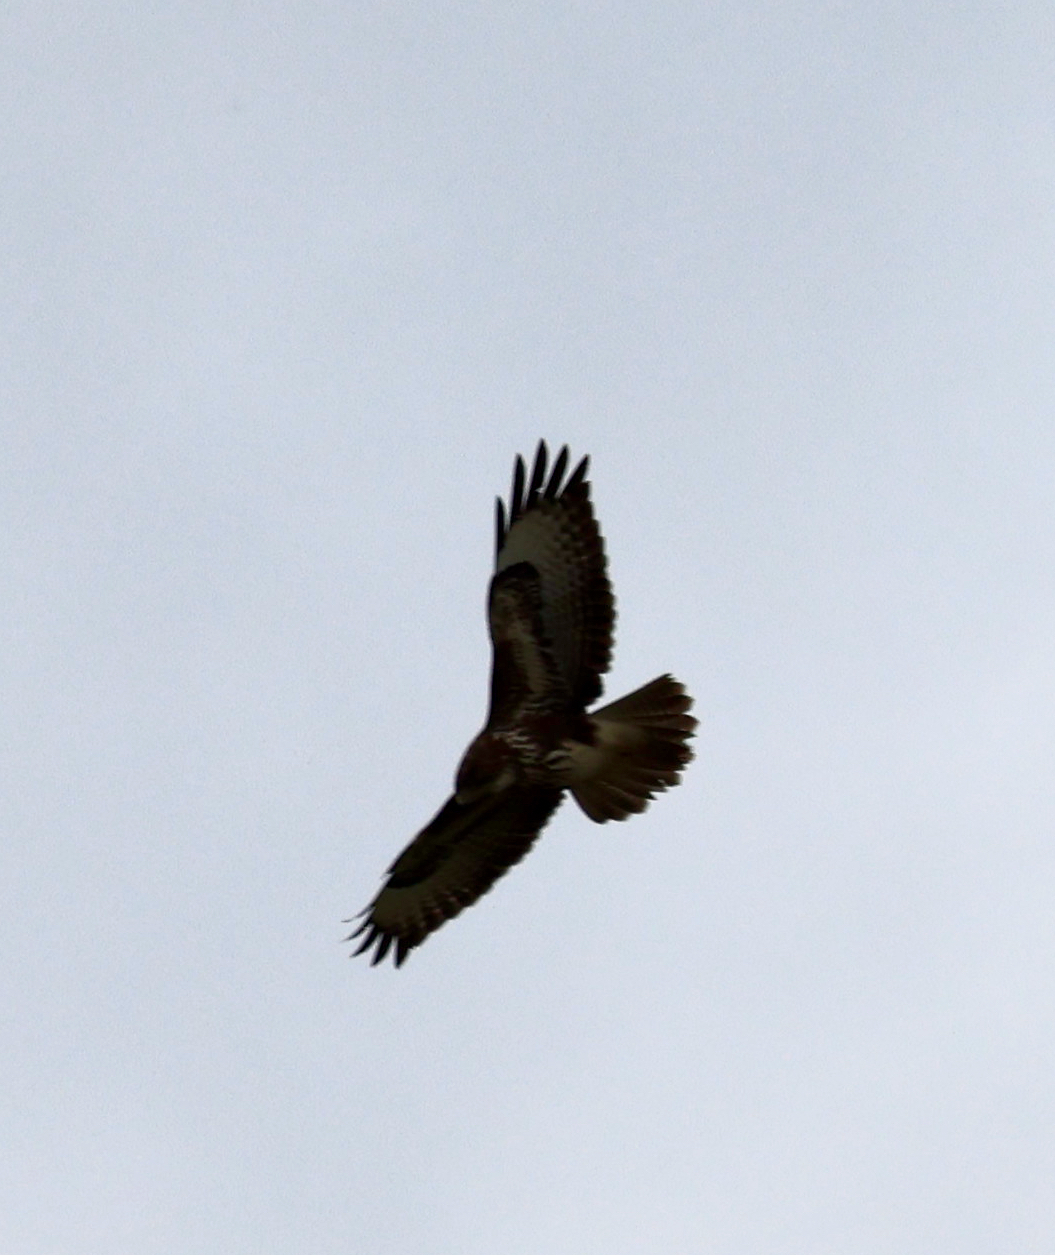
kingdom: Animalia
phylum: Chordata
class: Aves
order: Accipitriformes
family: Accipitridae
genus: Buteo
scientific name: Buteo buteo
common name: Common buzzard
